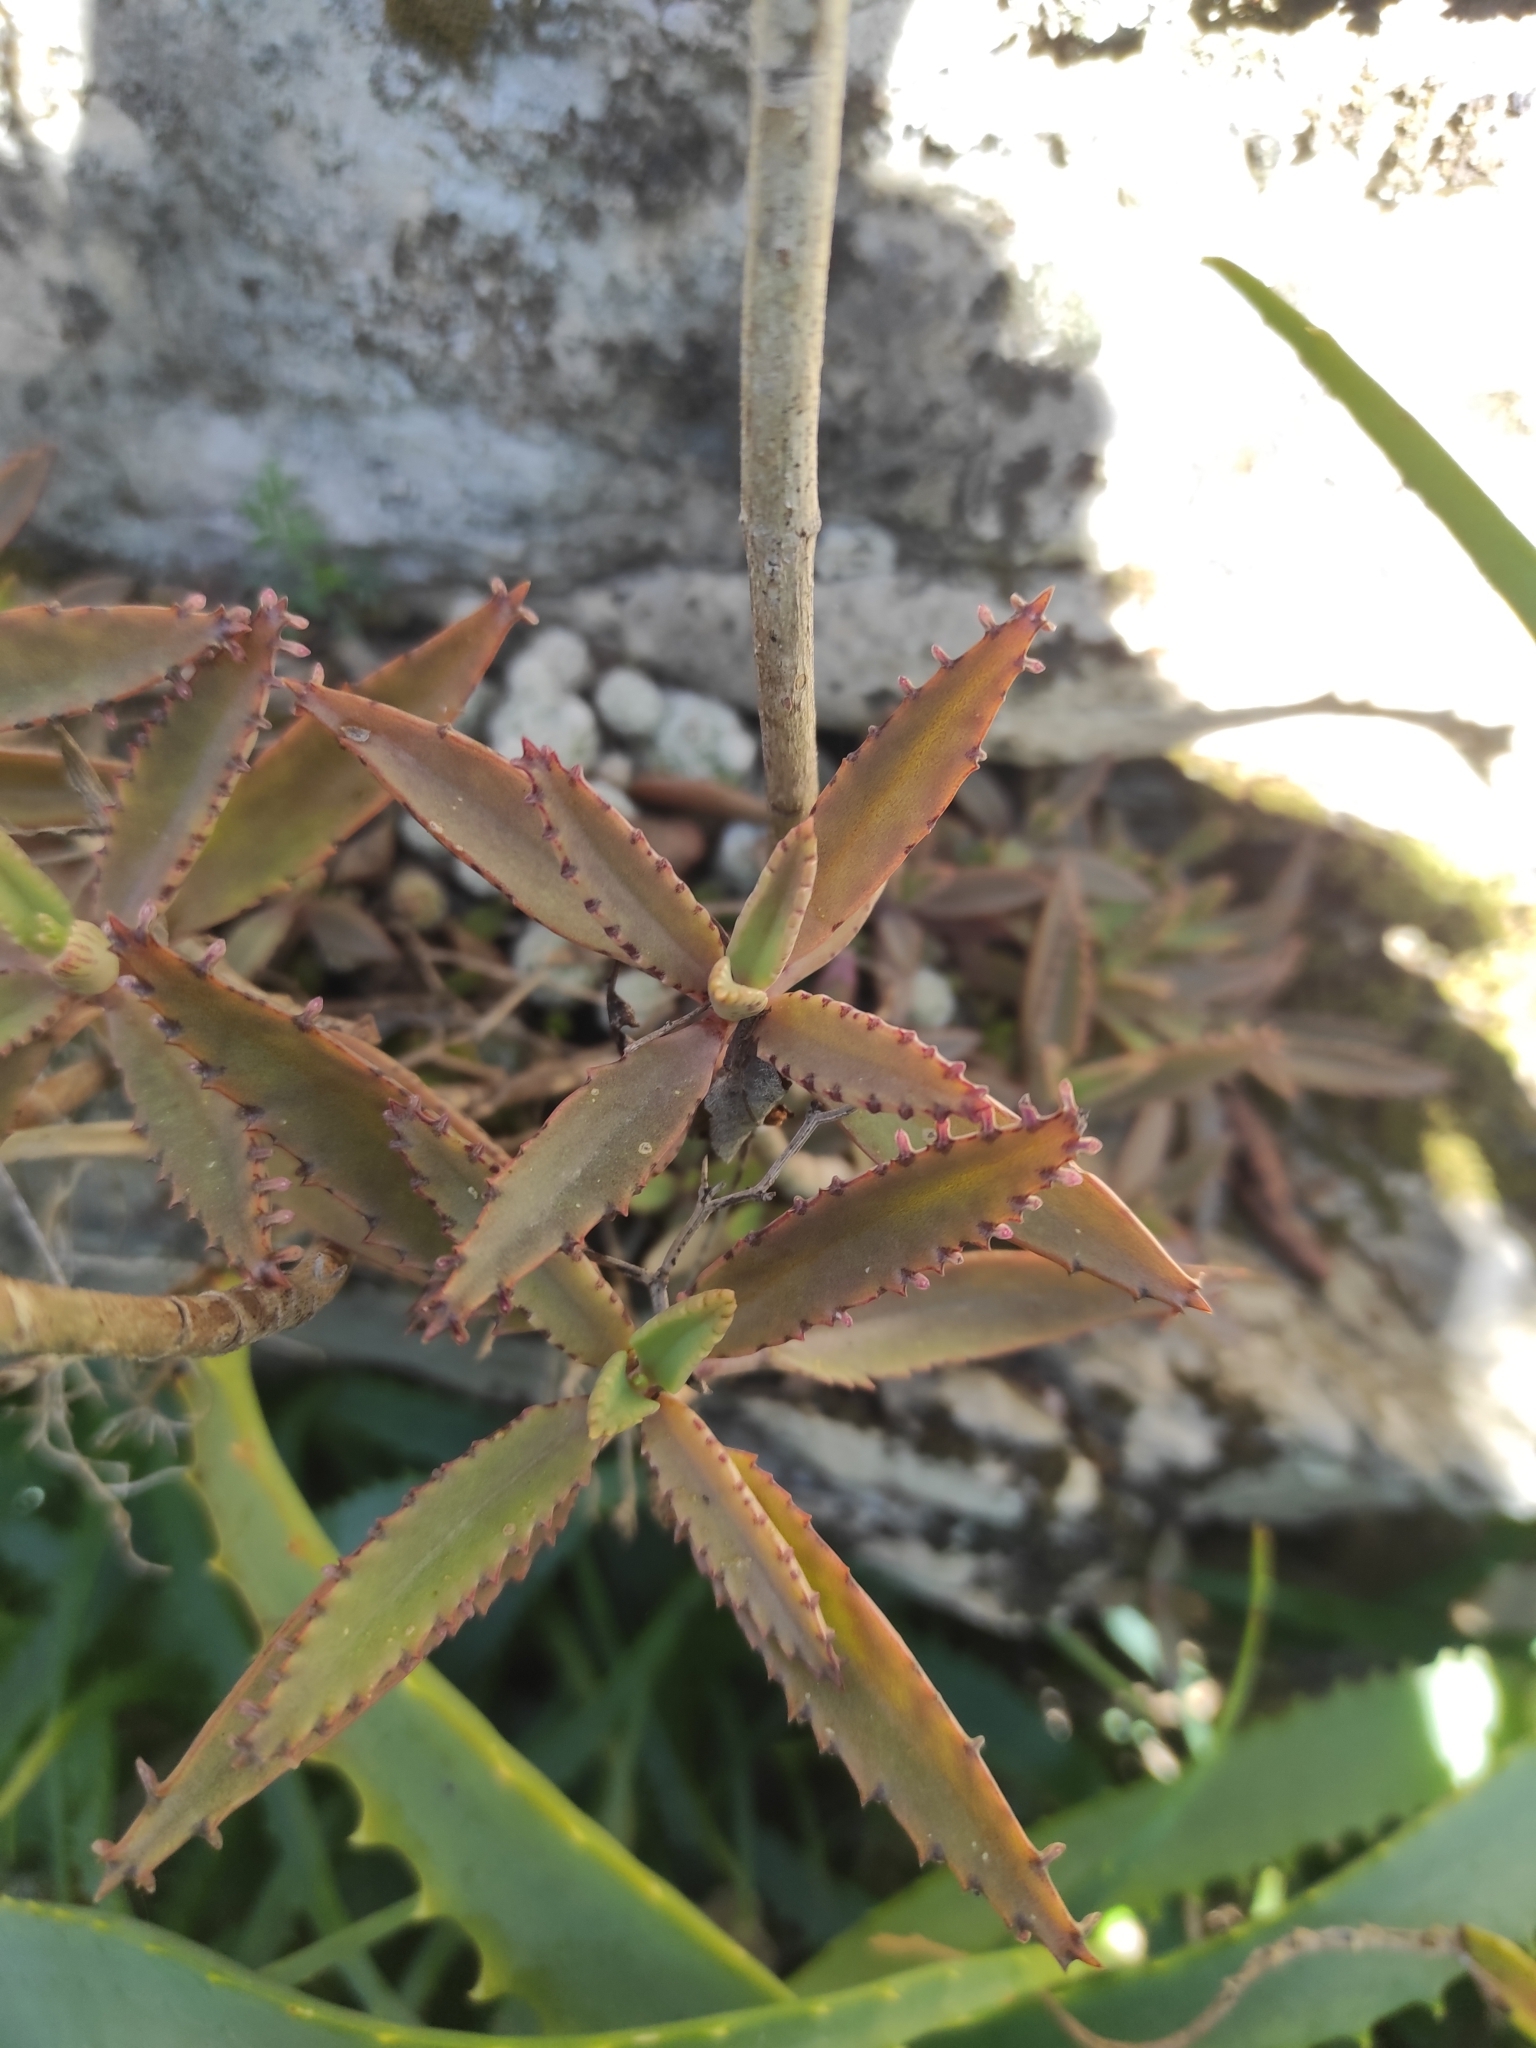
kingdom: Plantae
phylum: Tracheophyta
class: Magnoliopsida
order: Saxifragales
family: Crassulaceae
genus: Kalanchoe
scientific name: Kalanchoe houghtonii
